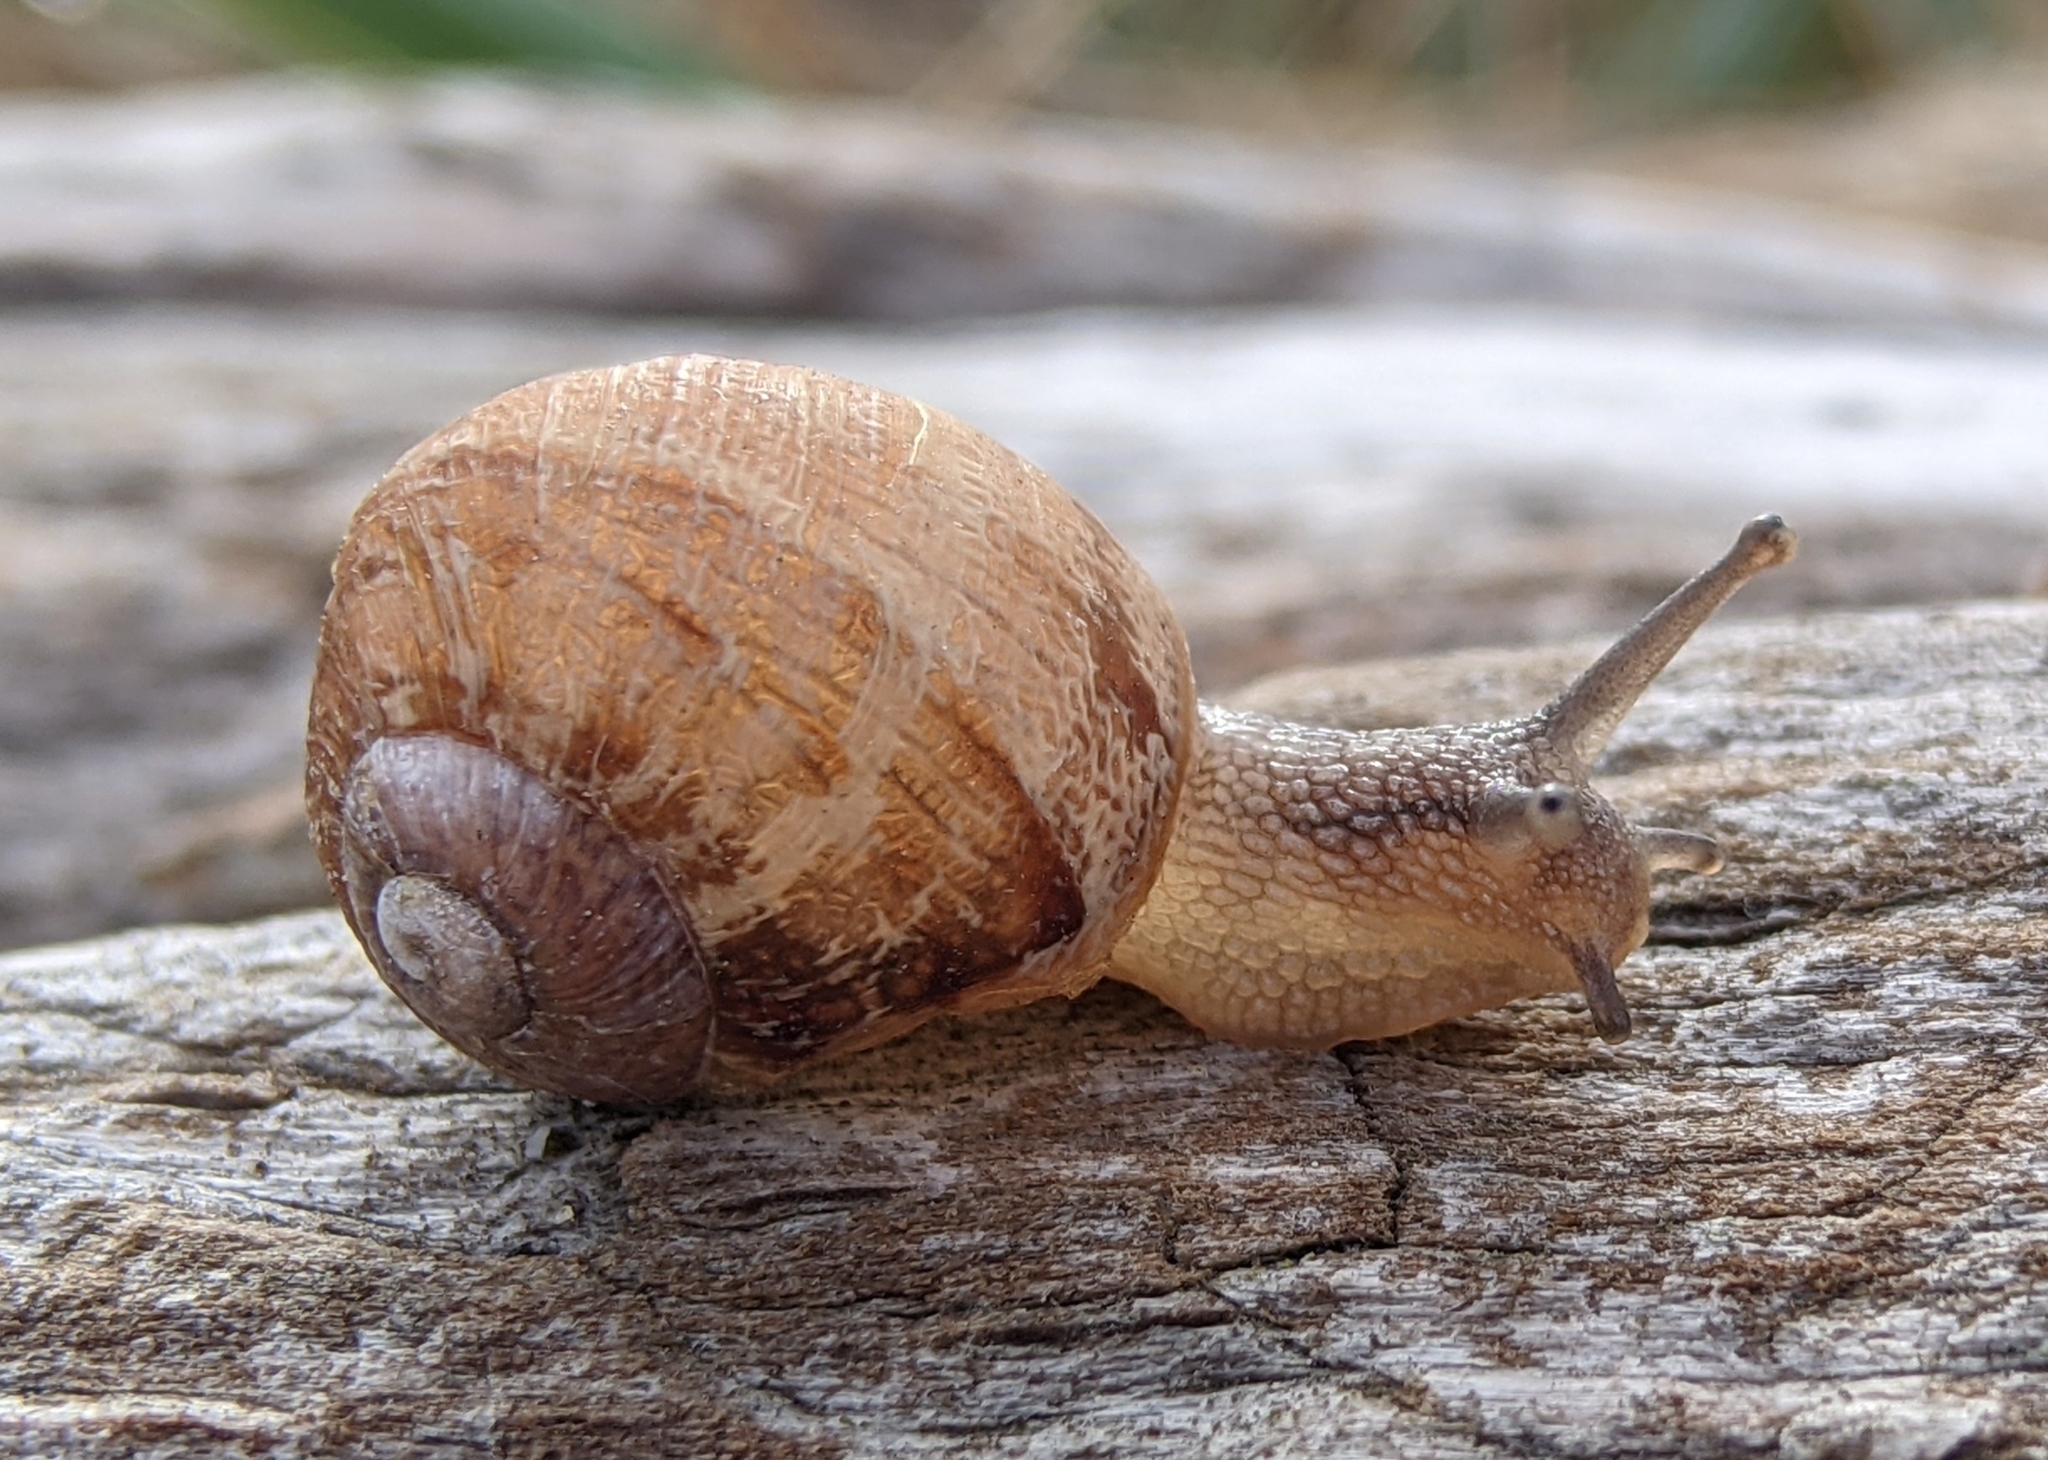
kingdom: Animalia
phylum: Mollusca
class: Gastropoda
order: Stylommatophora
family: Helicidae
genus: Cornu
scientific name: Cornu aspersum
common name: Brown garden snail
